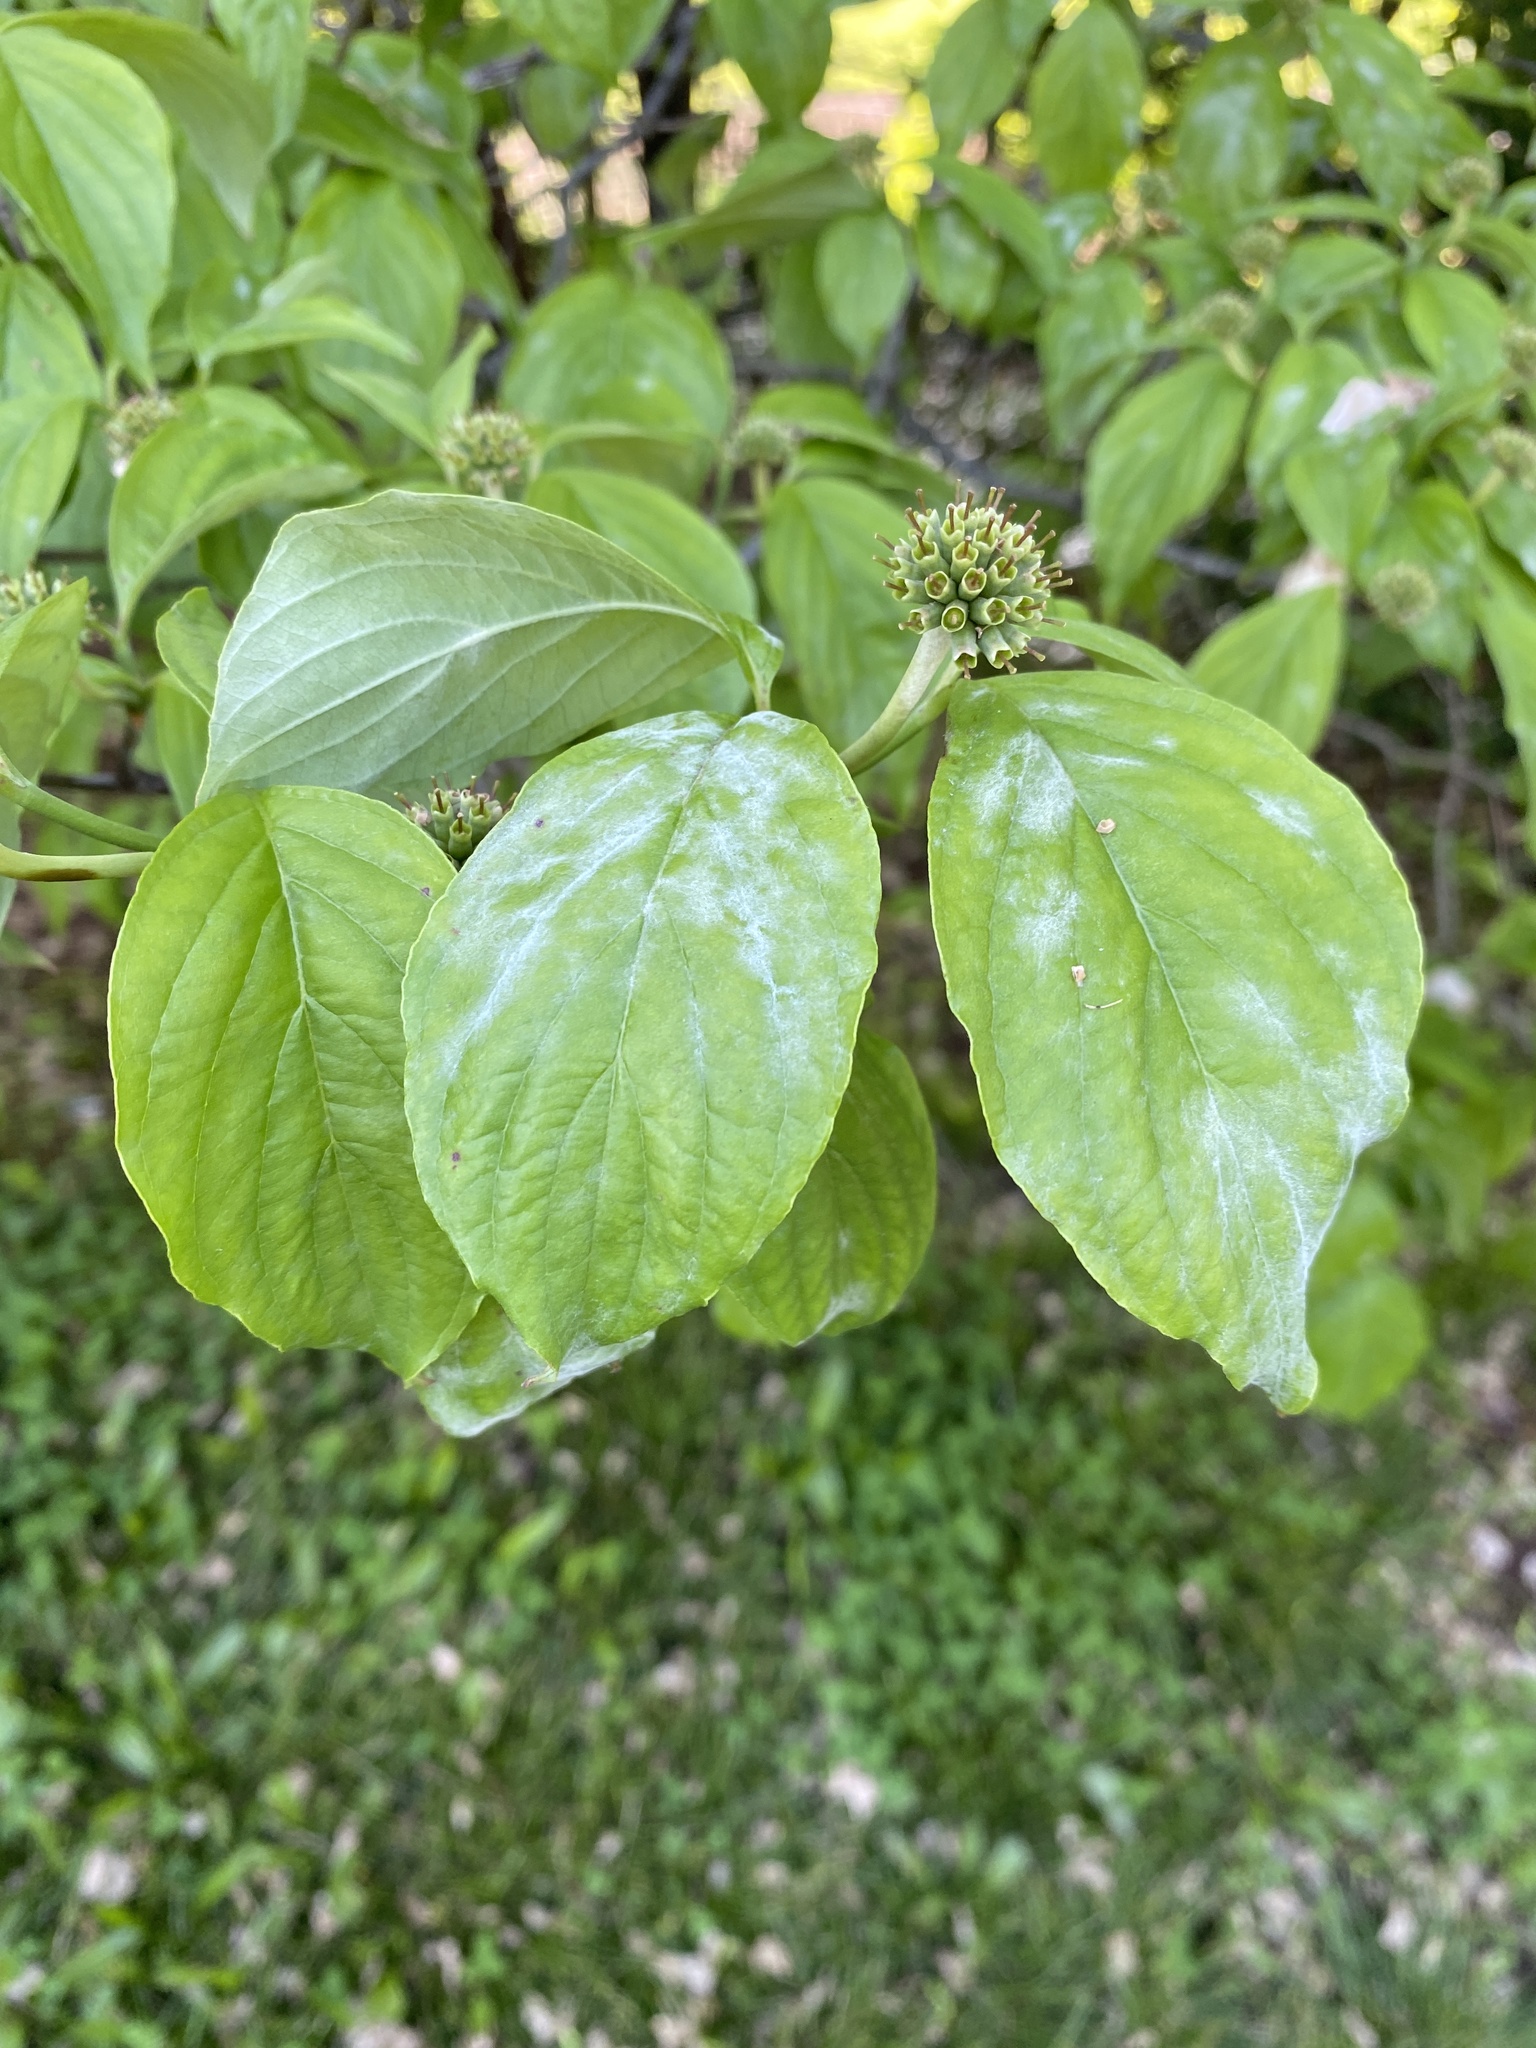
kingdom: Fungi
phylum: Ascomycota
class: Leotiomycetes
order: Helotiales
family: Erysiphaceae
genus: Erysiphe
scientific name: Erysiphe
